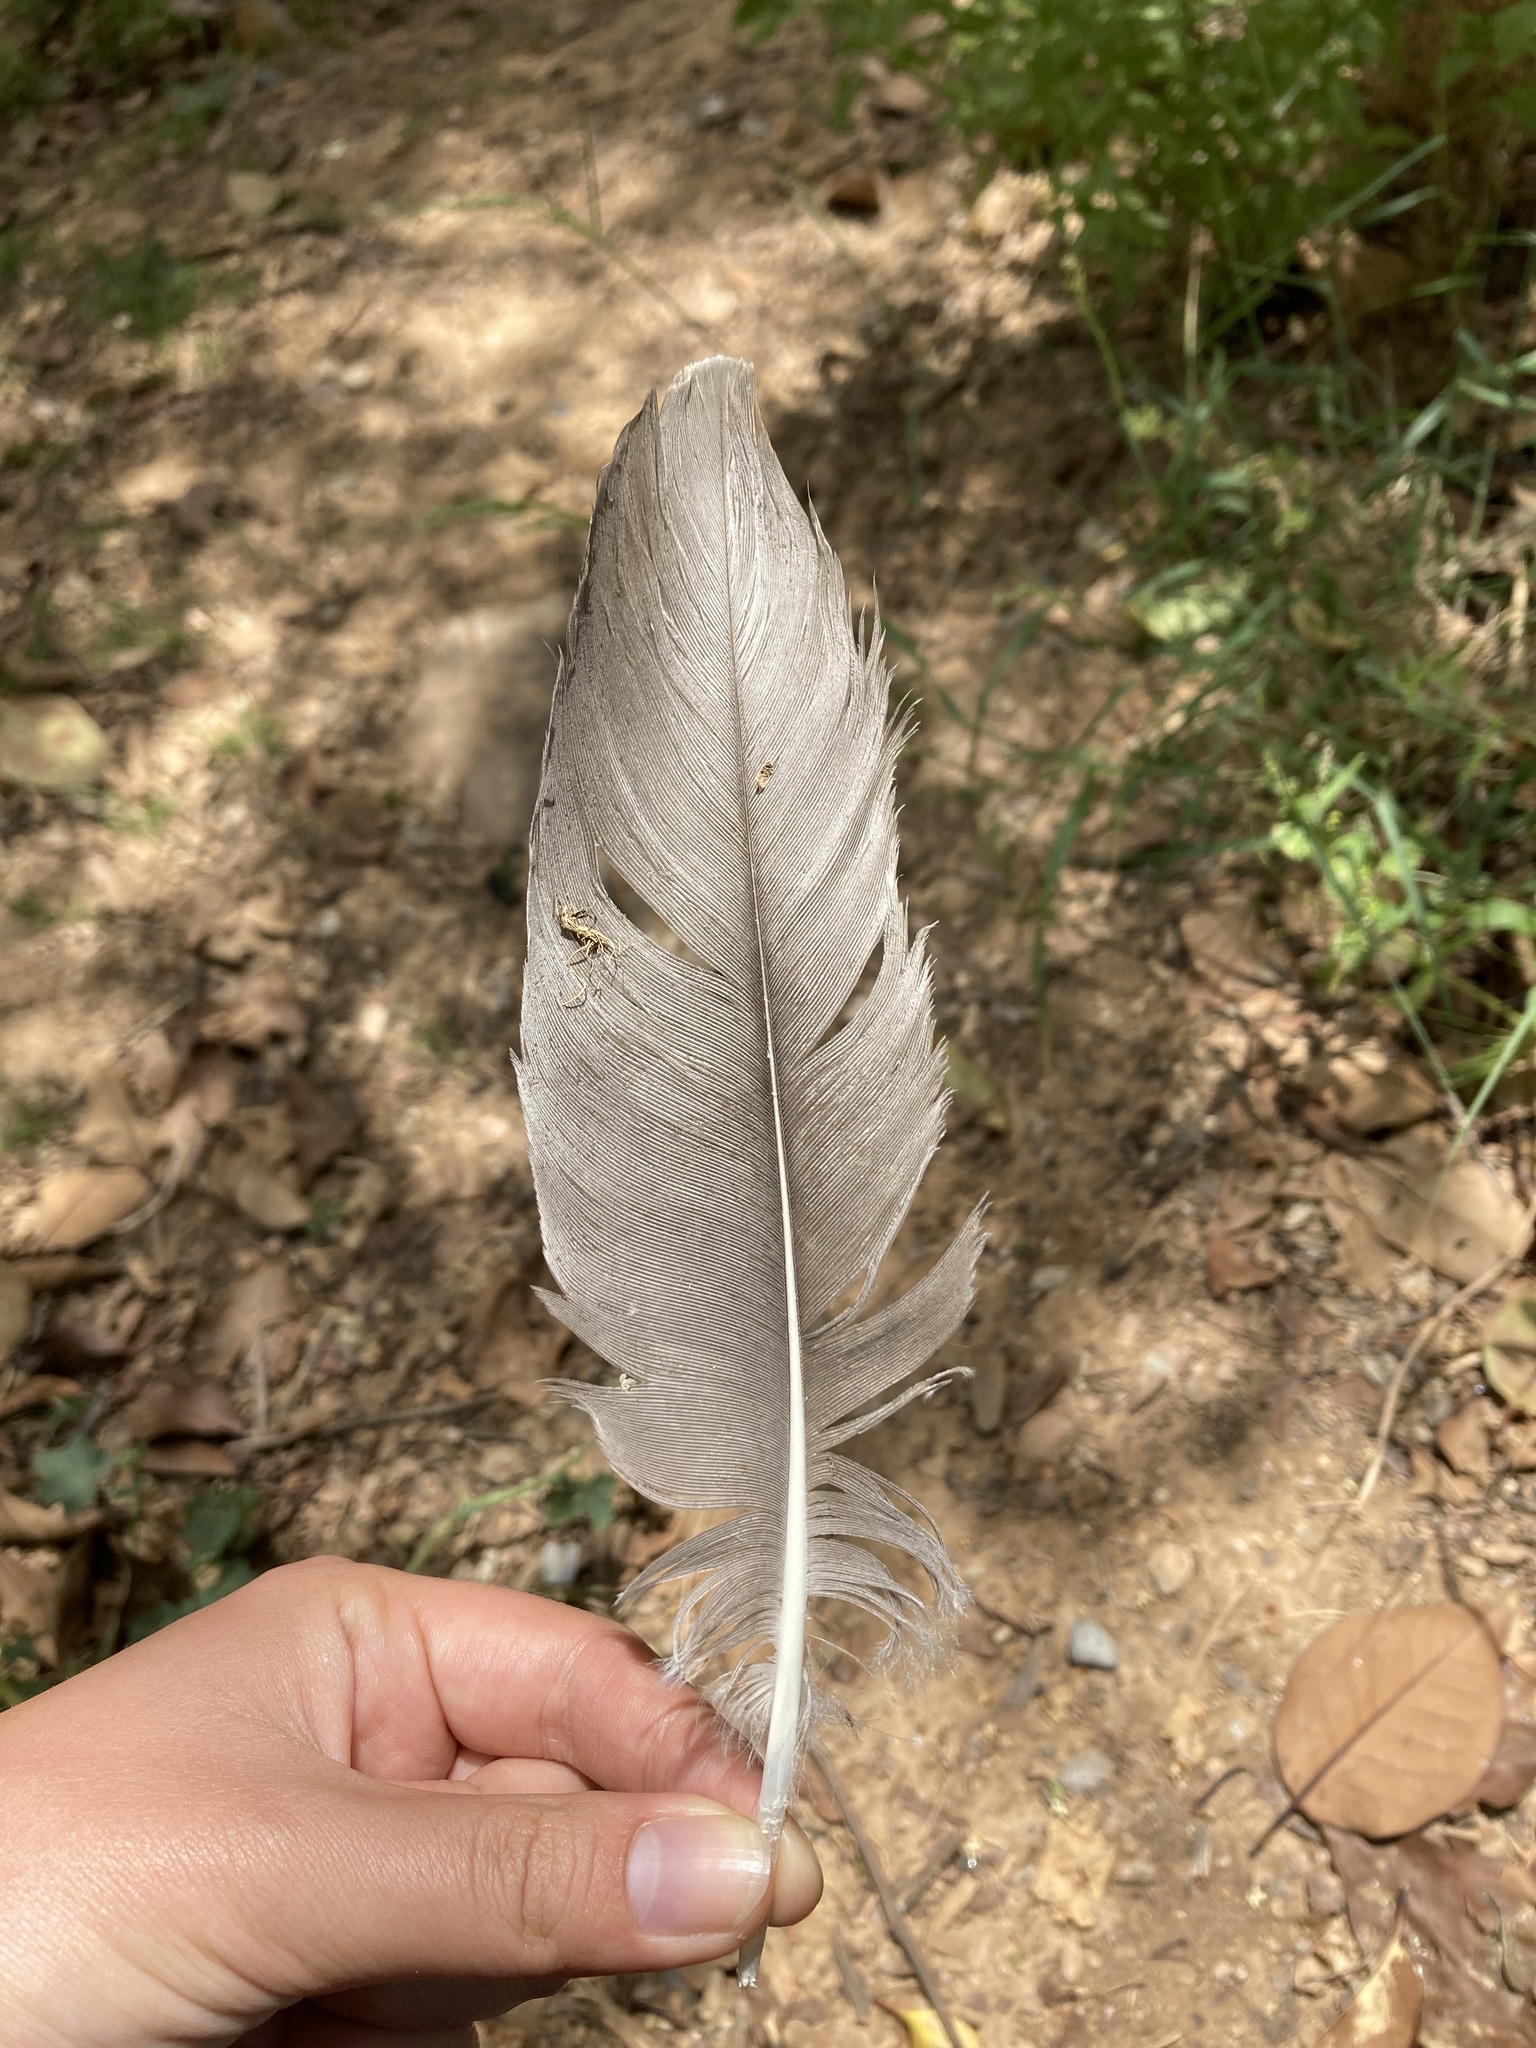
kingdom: Animalia
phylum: Chordata
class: Aves
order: Anseriformes
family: Anatidae
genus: Anser
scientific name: Anser anser
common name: Greylag goose
